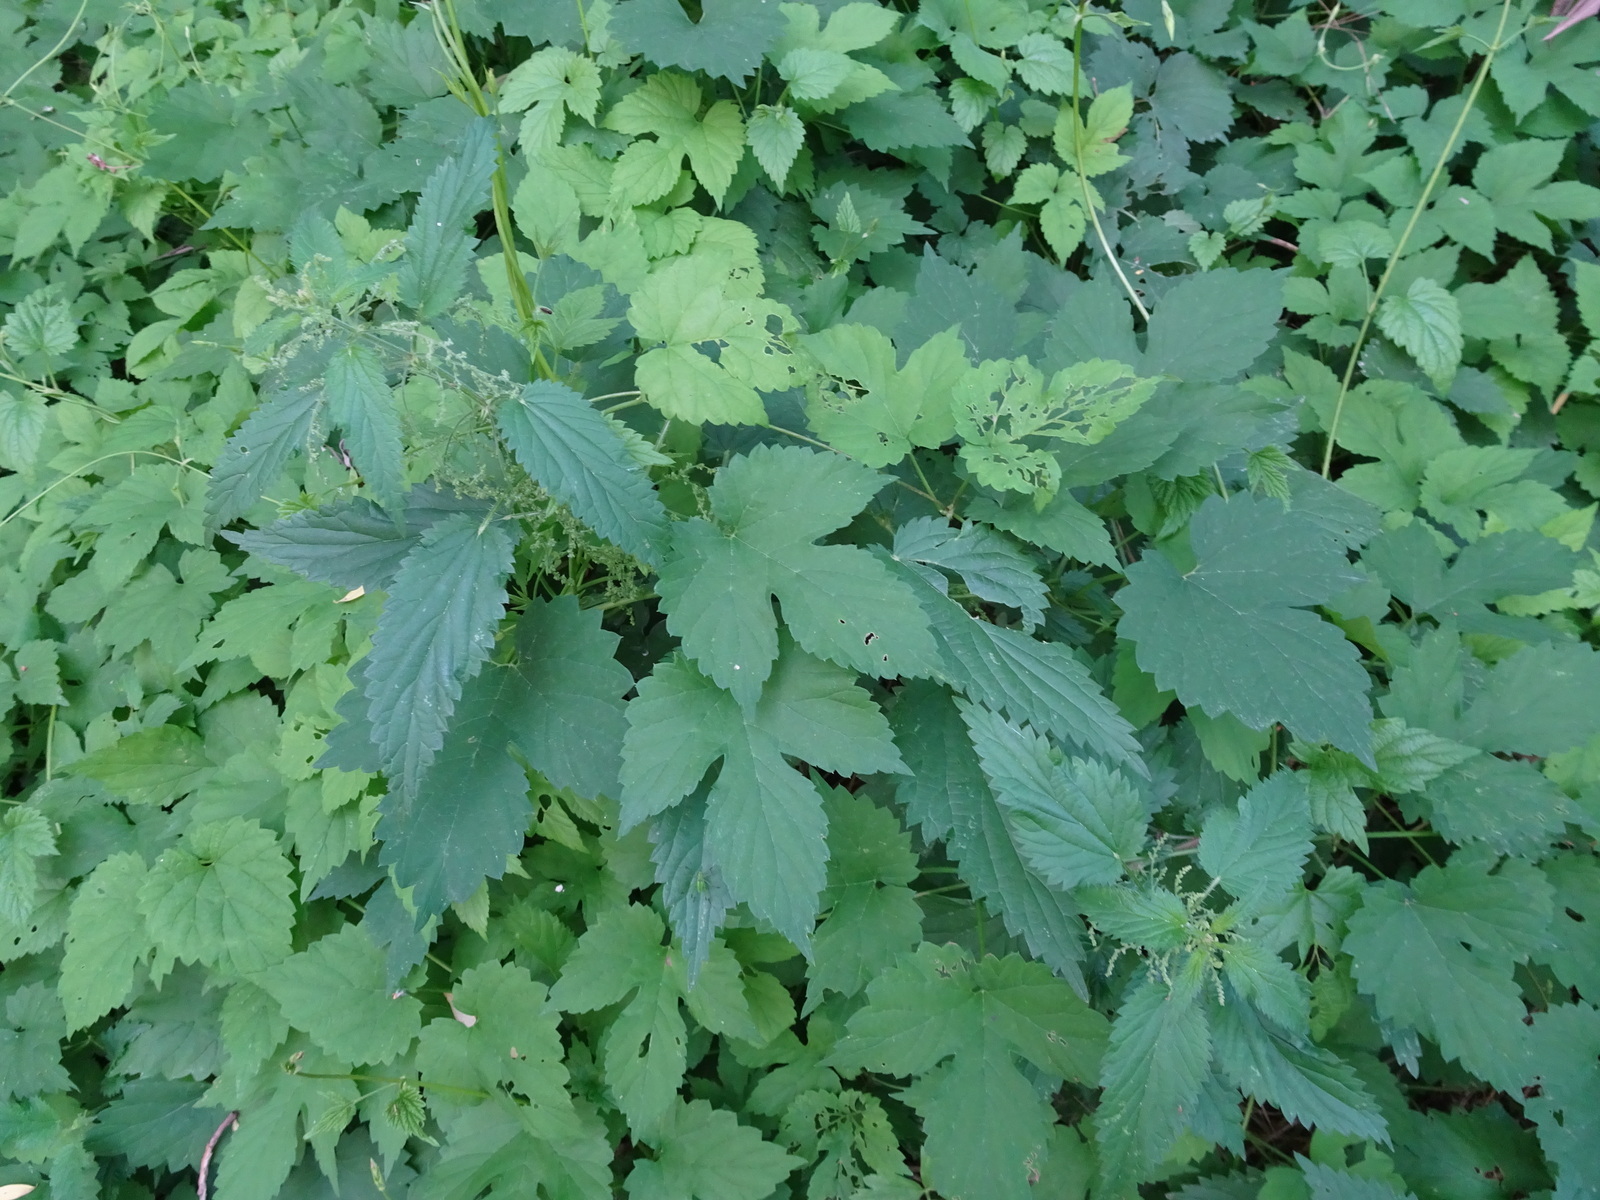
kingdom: Plantae
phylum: Tracheophyta
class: Magnoliopsida
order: Rosales
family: Cannabaceae
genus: Humulus
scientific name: Humulus lupulus
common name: Hop
